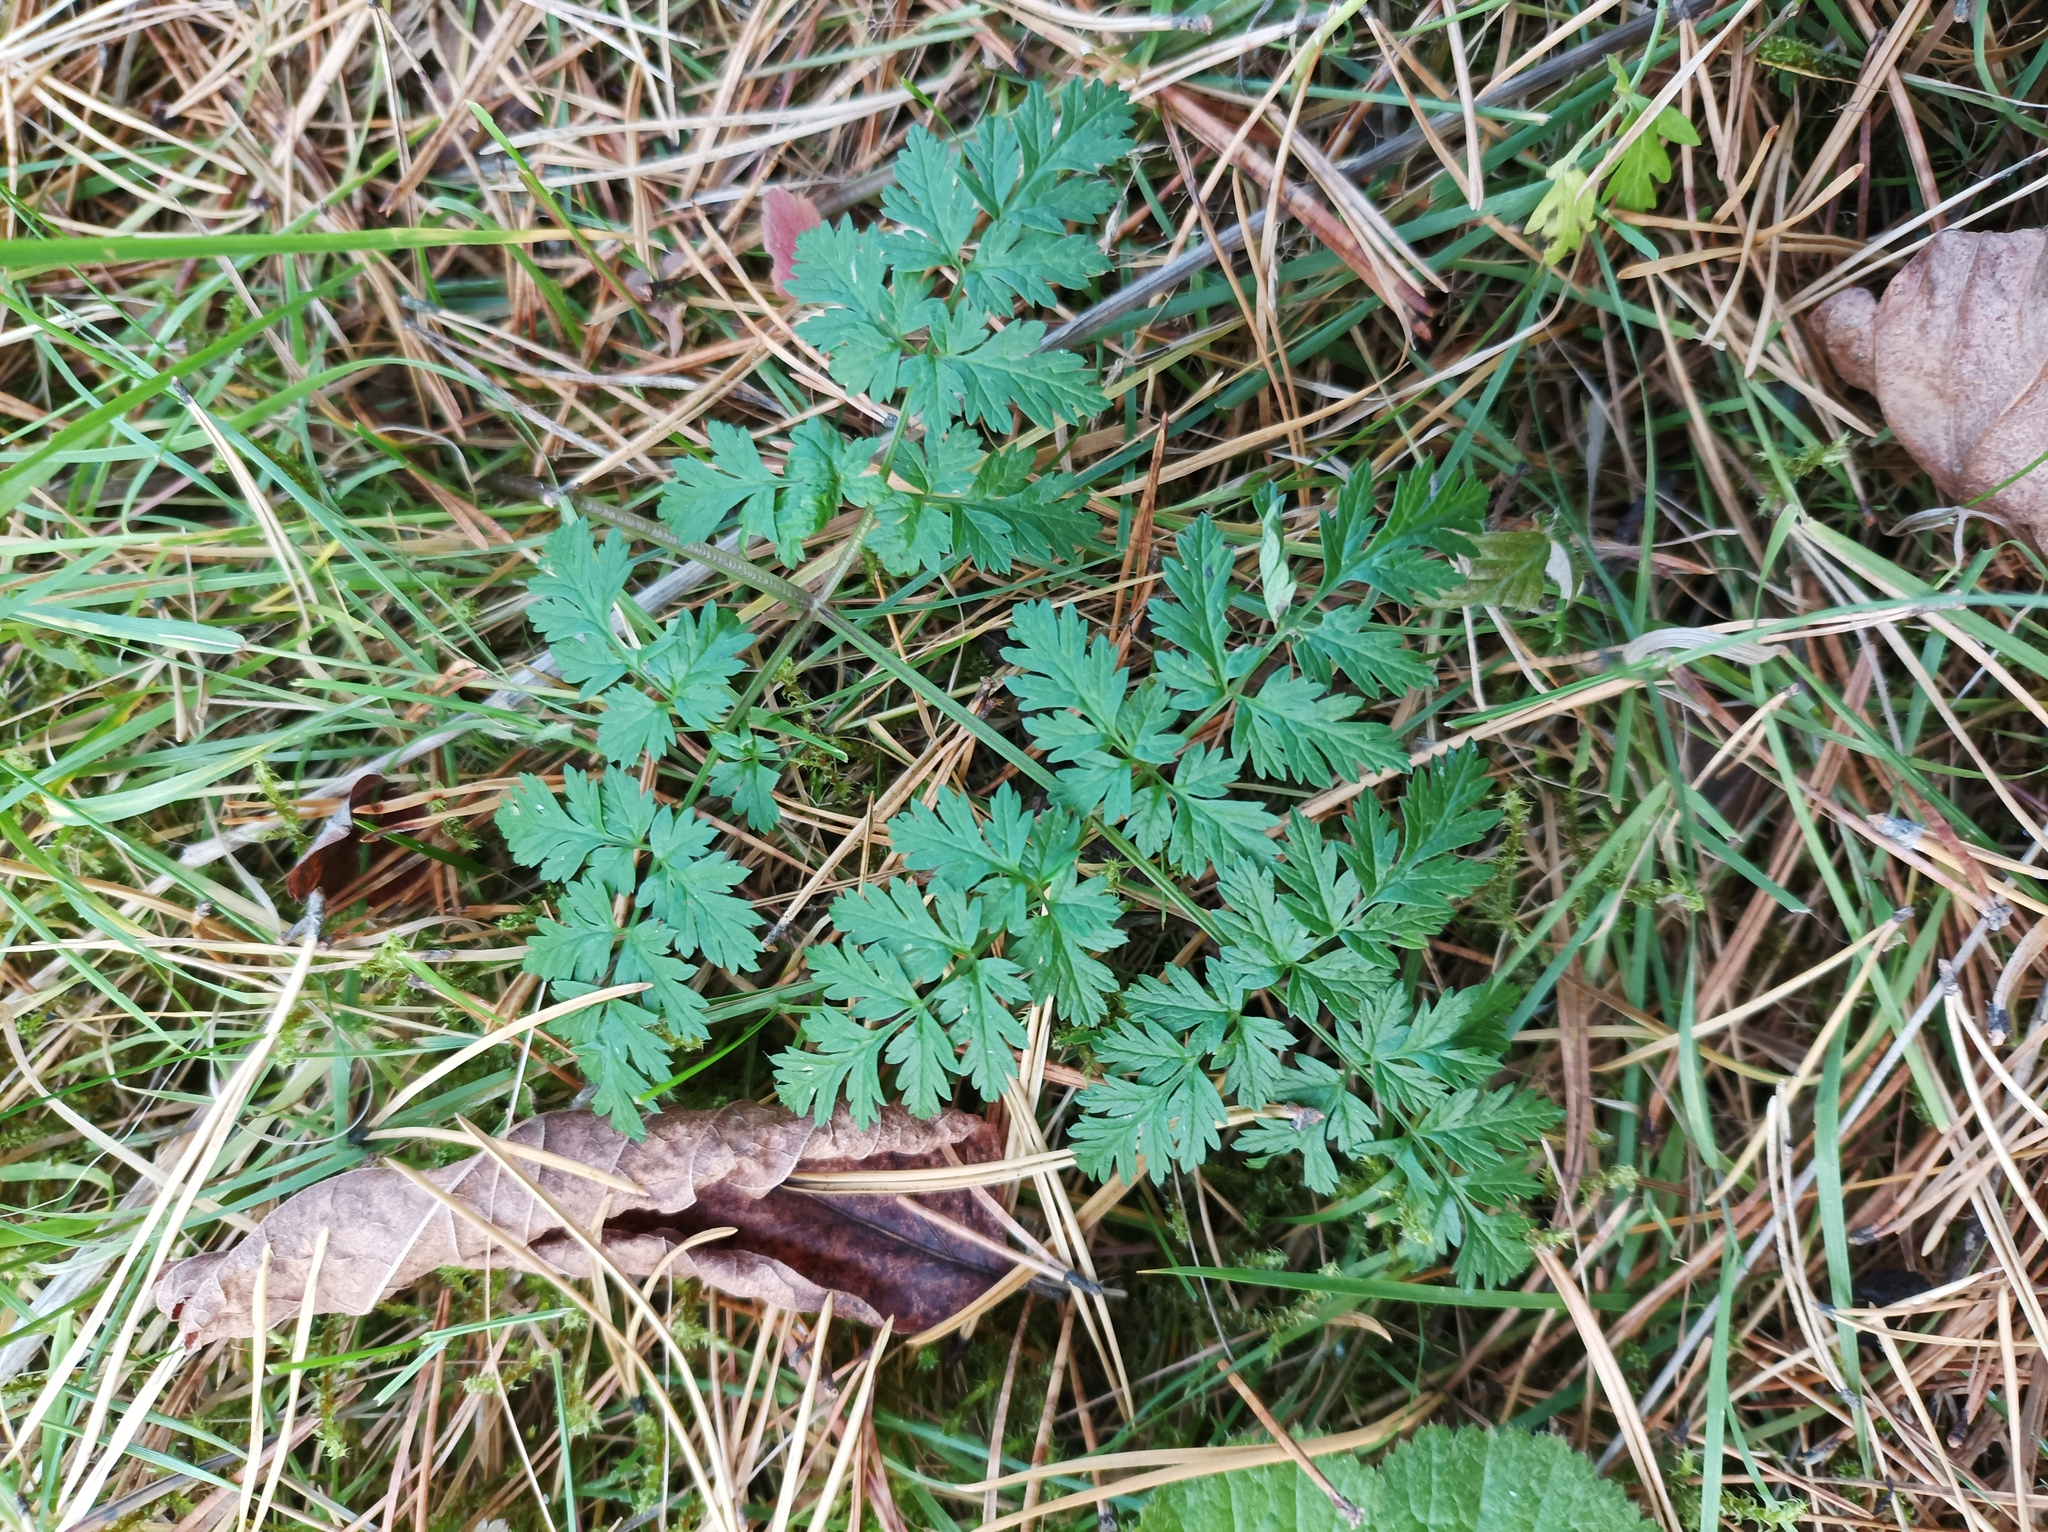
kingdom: Plantae
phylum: Tracheophyta
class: Magnoliopsida
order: Apiales
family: Apiaceae
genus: Anthriscus
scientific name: Anthriscus sylvestris
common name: Cow parsley
